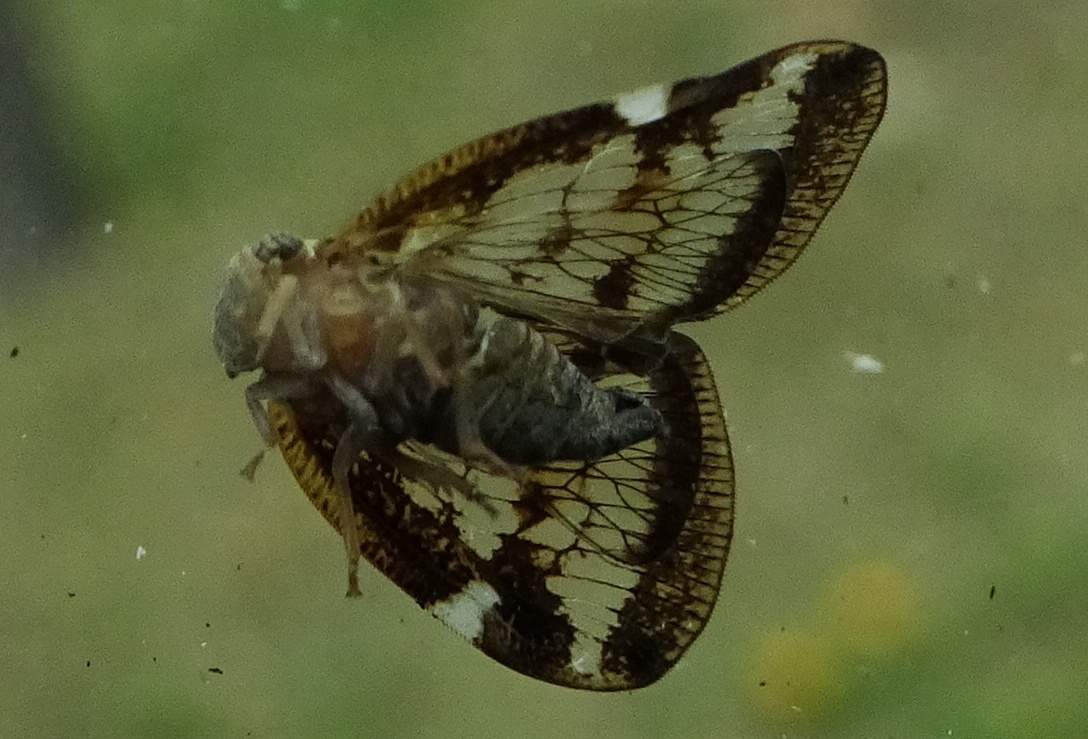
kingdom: Animalia
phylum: Arthropoda
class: Insecta
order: Hemiptera
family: Ricaniidae
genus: Scolypopa
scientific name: Scolypopa australis
